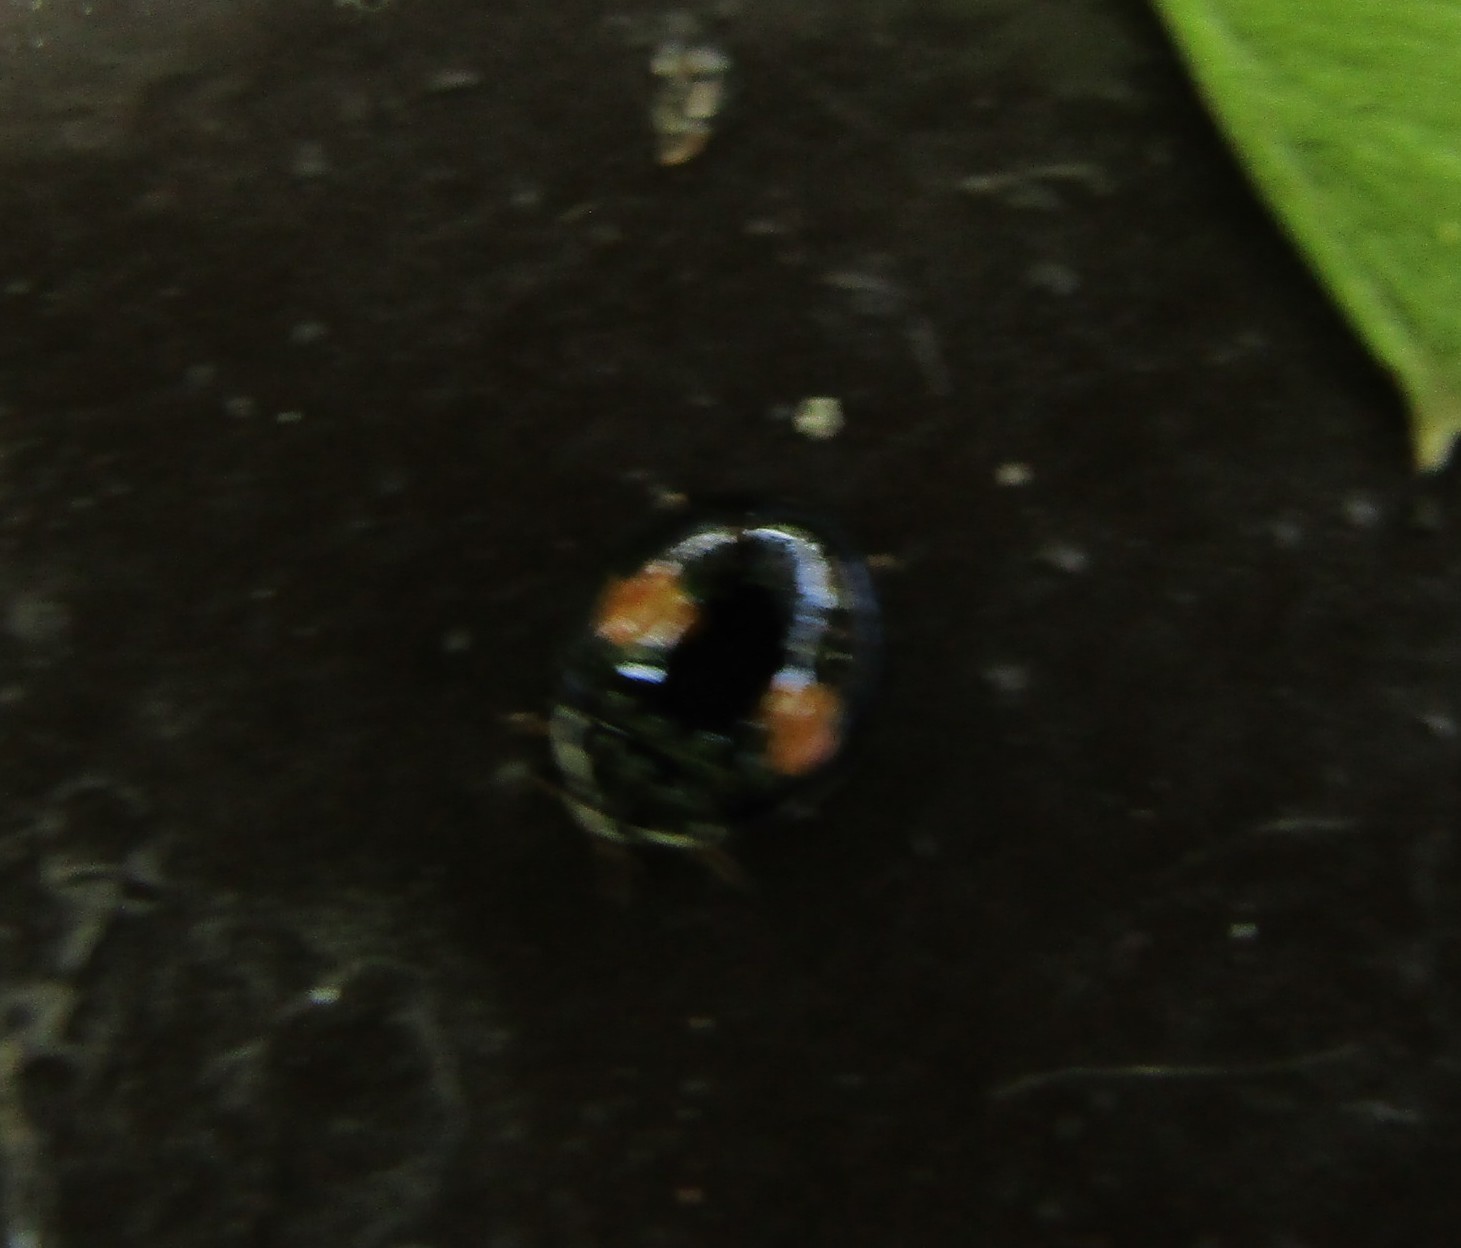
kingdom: Animalia
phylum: Arthropoda
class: Insecta
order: Coleoptera
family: Coccinellidae
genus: Olla
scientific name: Olla v-nigrum
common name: Ashy gray lady beetle
